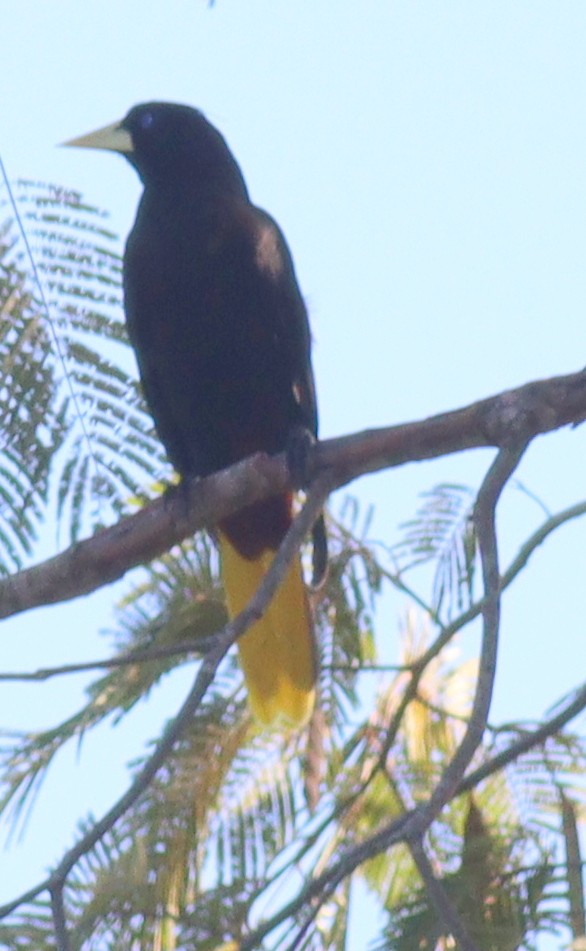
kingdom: Animalia
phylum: Chordata
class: Aves
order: Passeriformes
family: Icteridae
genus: Psarocolius
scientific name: Psarocolius decumanus
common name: Crested oropendola
